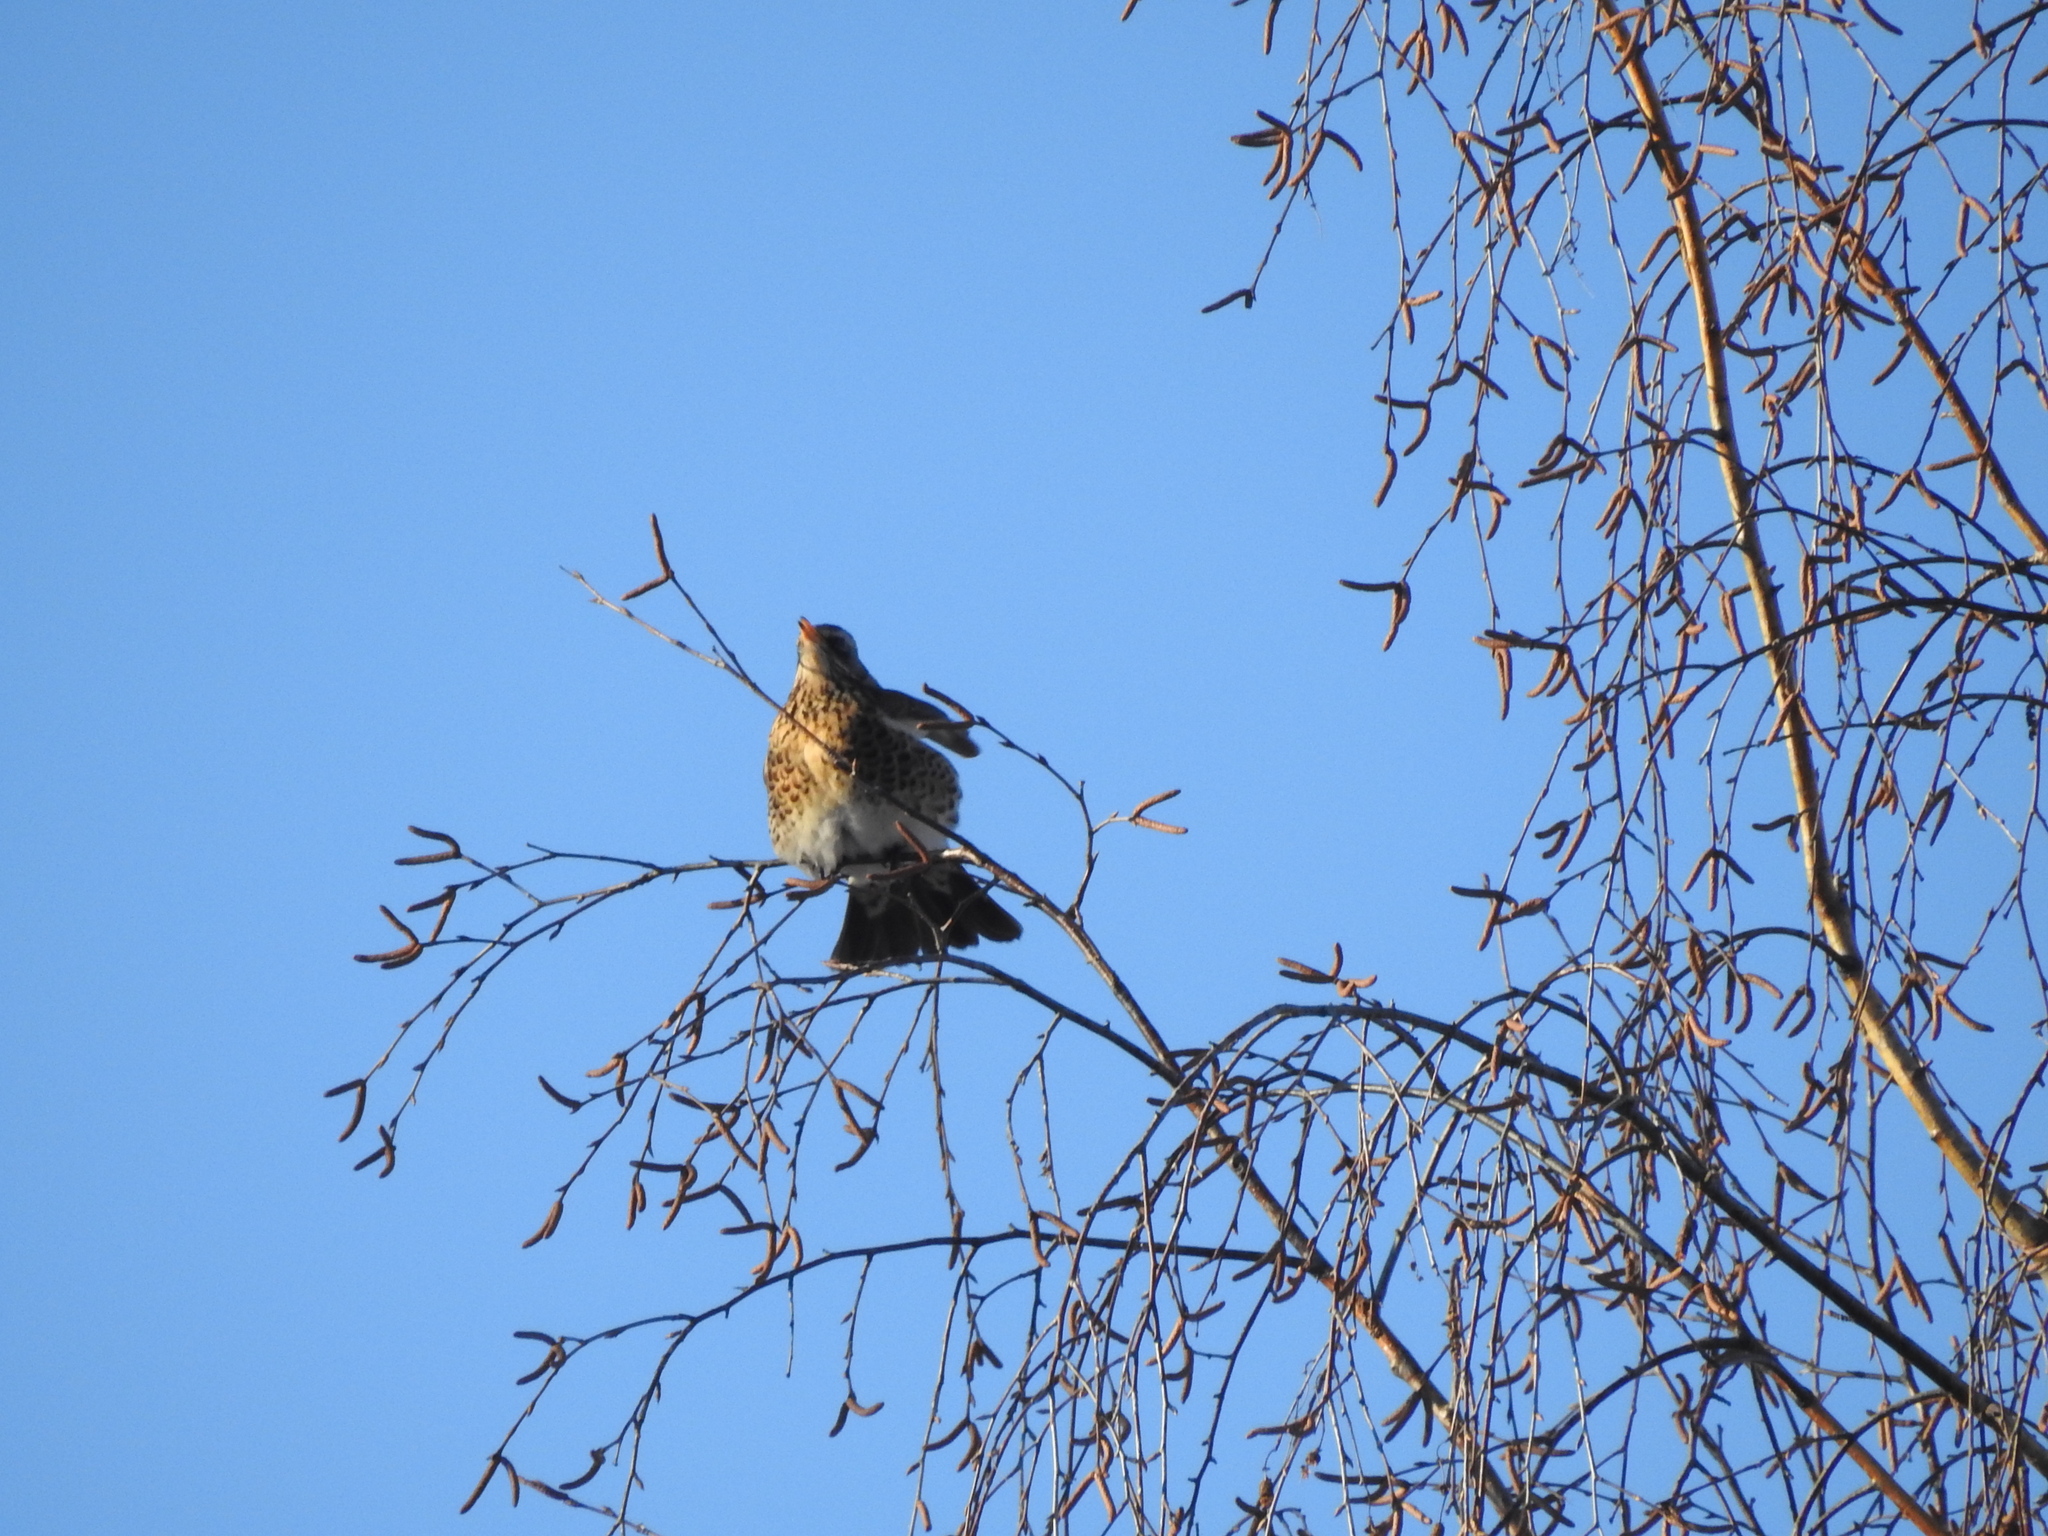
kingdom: Animalia
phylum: Chordata
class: Aves
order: Passeriformes
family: Turdidae
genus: Turdus
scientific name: Turdus pilaris
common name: Fieldfare
